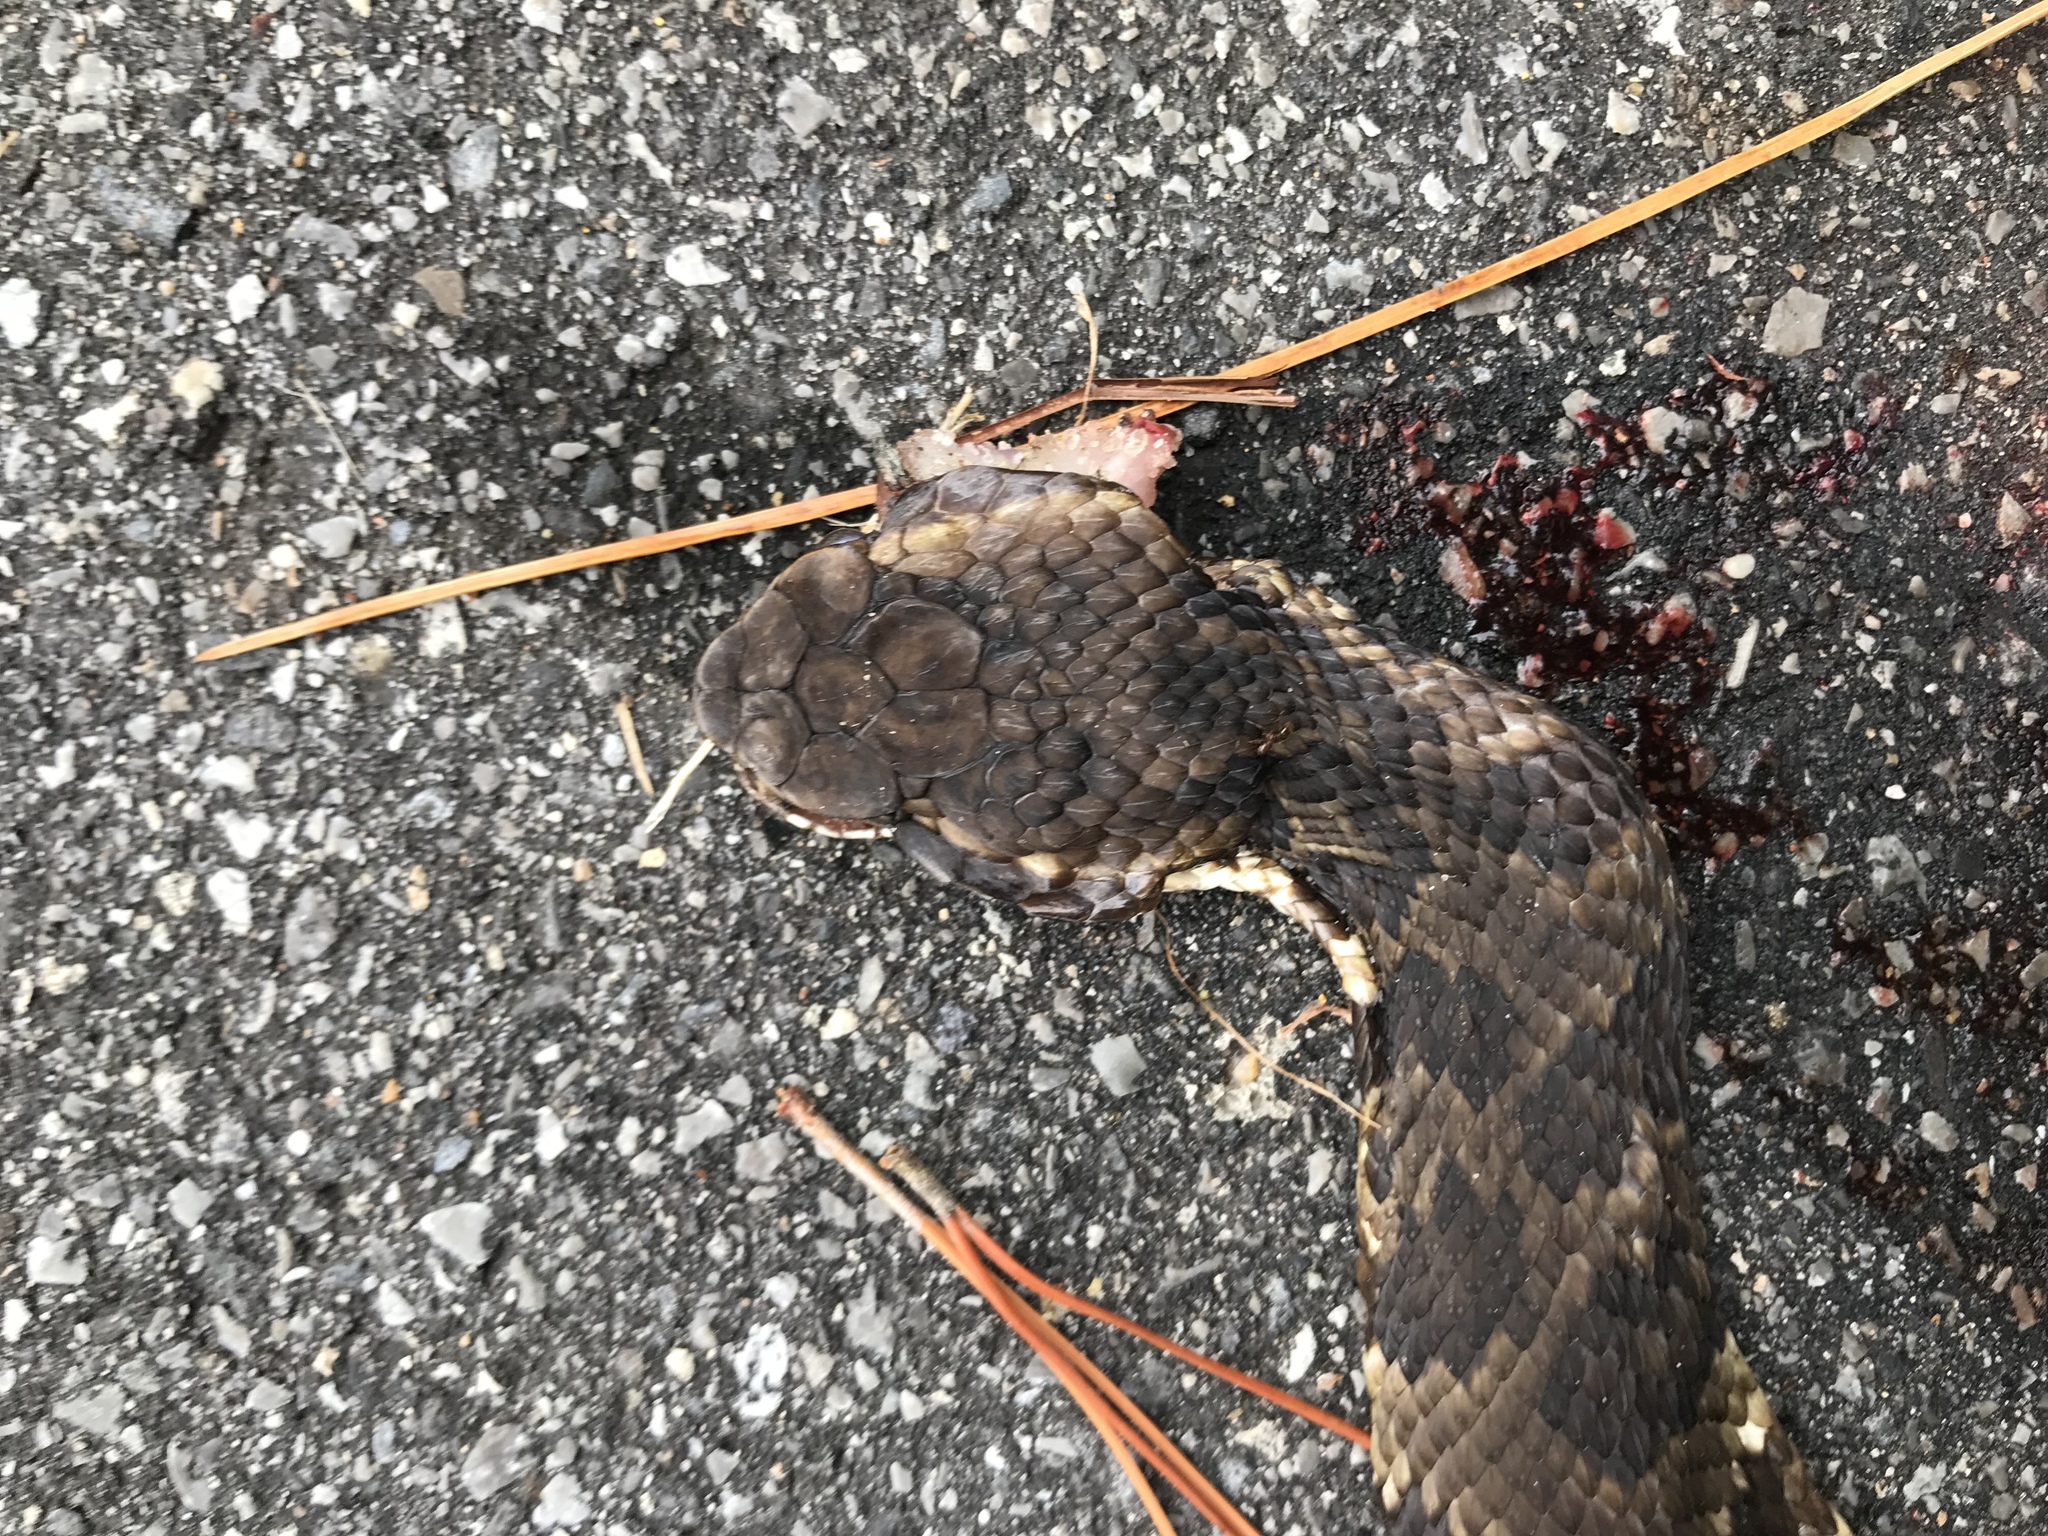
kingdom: Animalia
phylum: Chordata
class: Squamata
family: Viperidae
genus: Agkistrodon
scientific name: Agkistrodon piscivorus
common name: Cottonmouth
